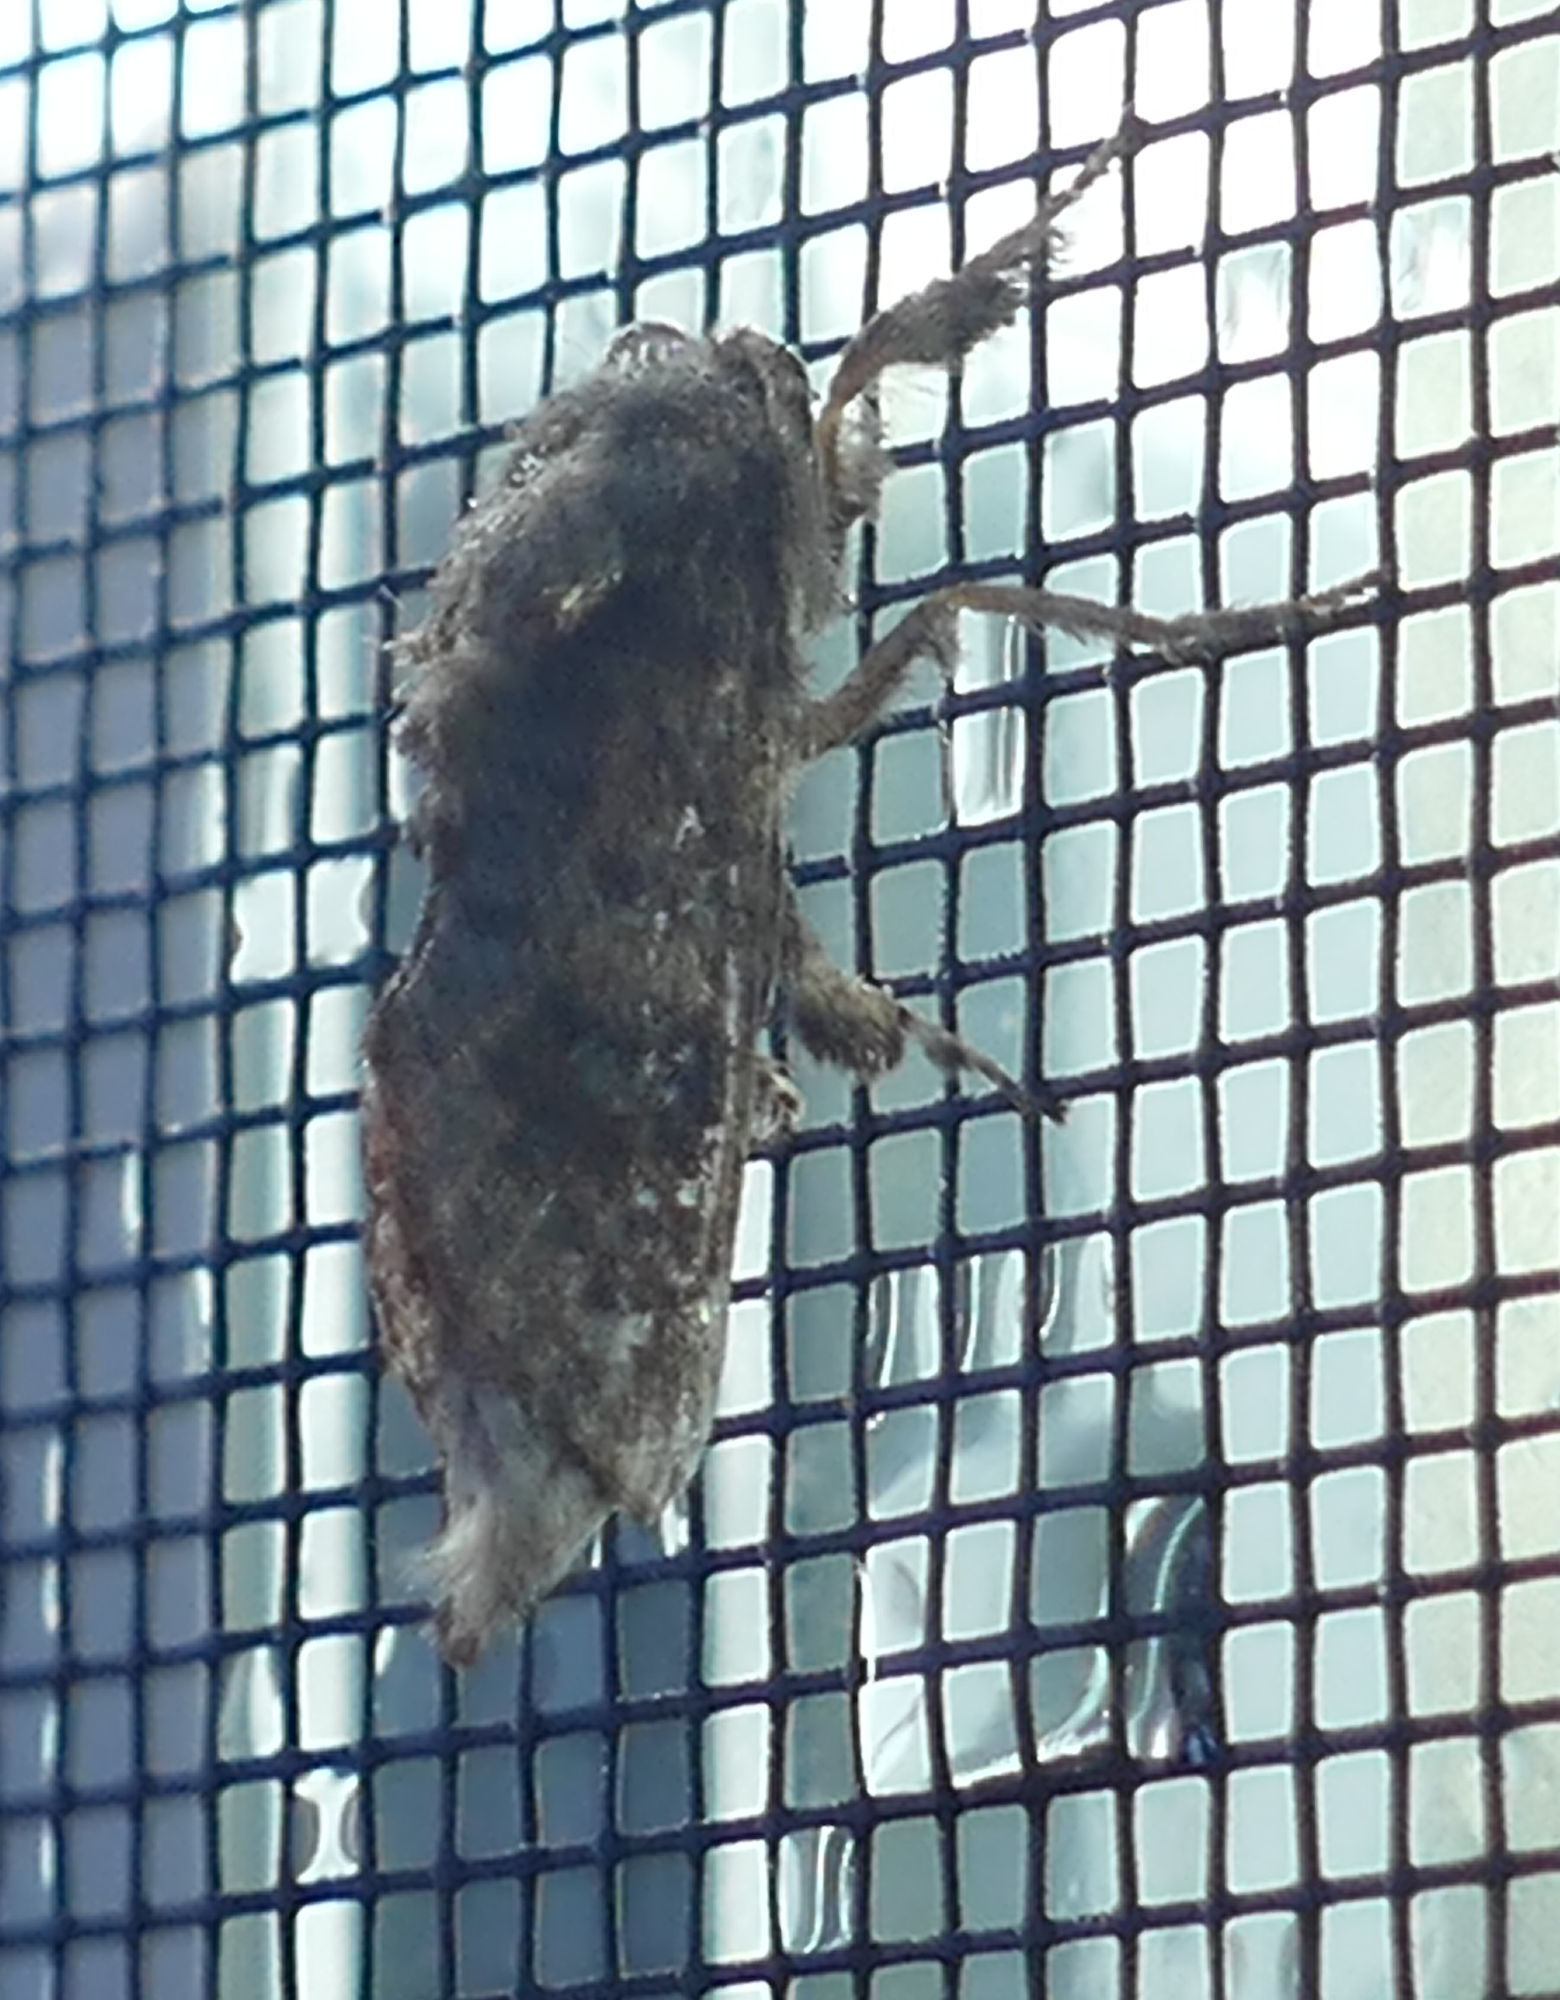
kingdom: Animalia
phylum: Arthropoda
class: Insecta
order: Lepidoptera
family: Cossidae
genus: Givira
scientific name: Givira arbeloides
